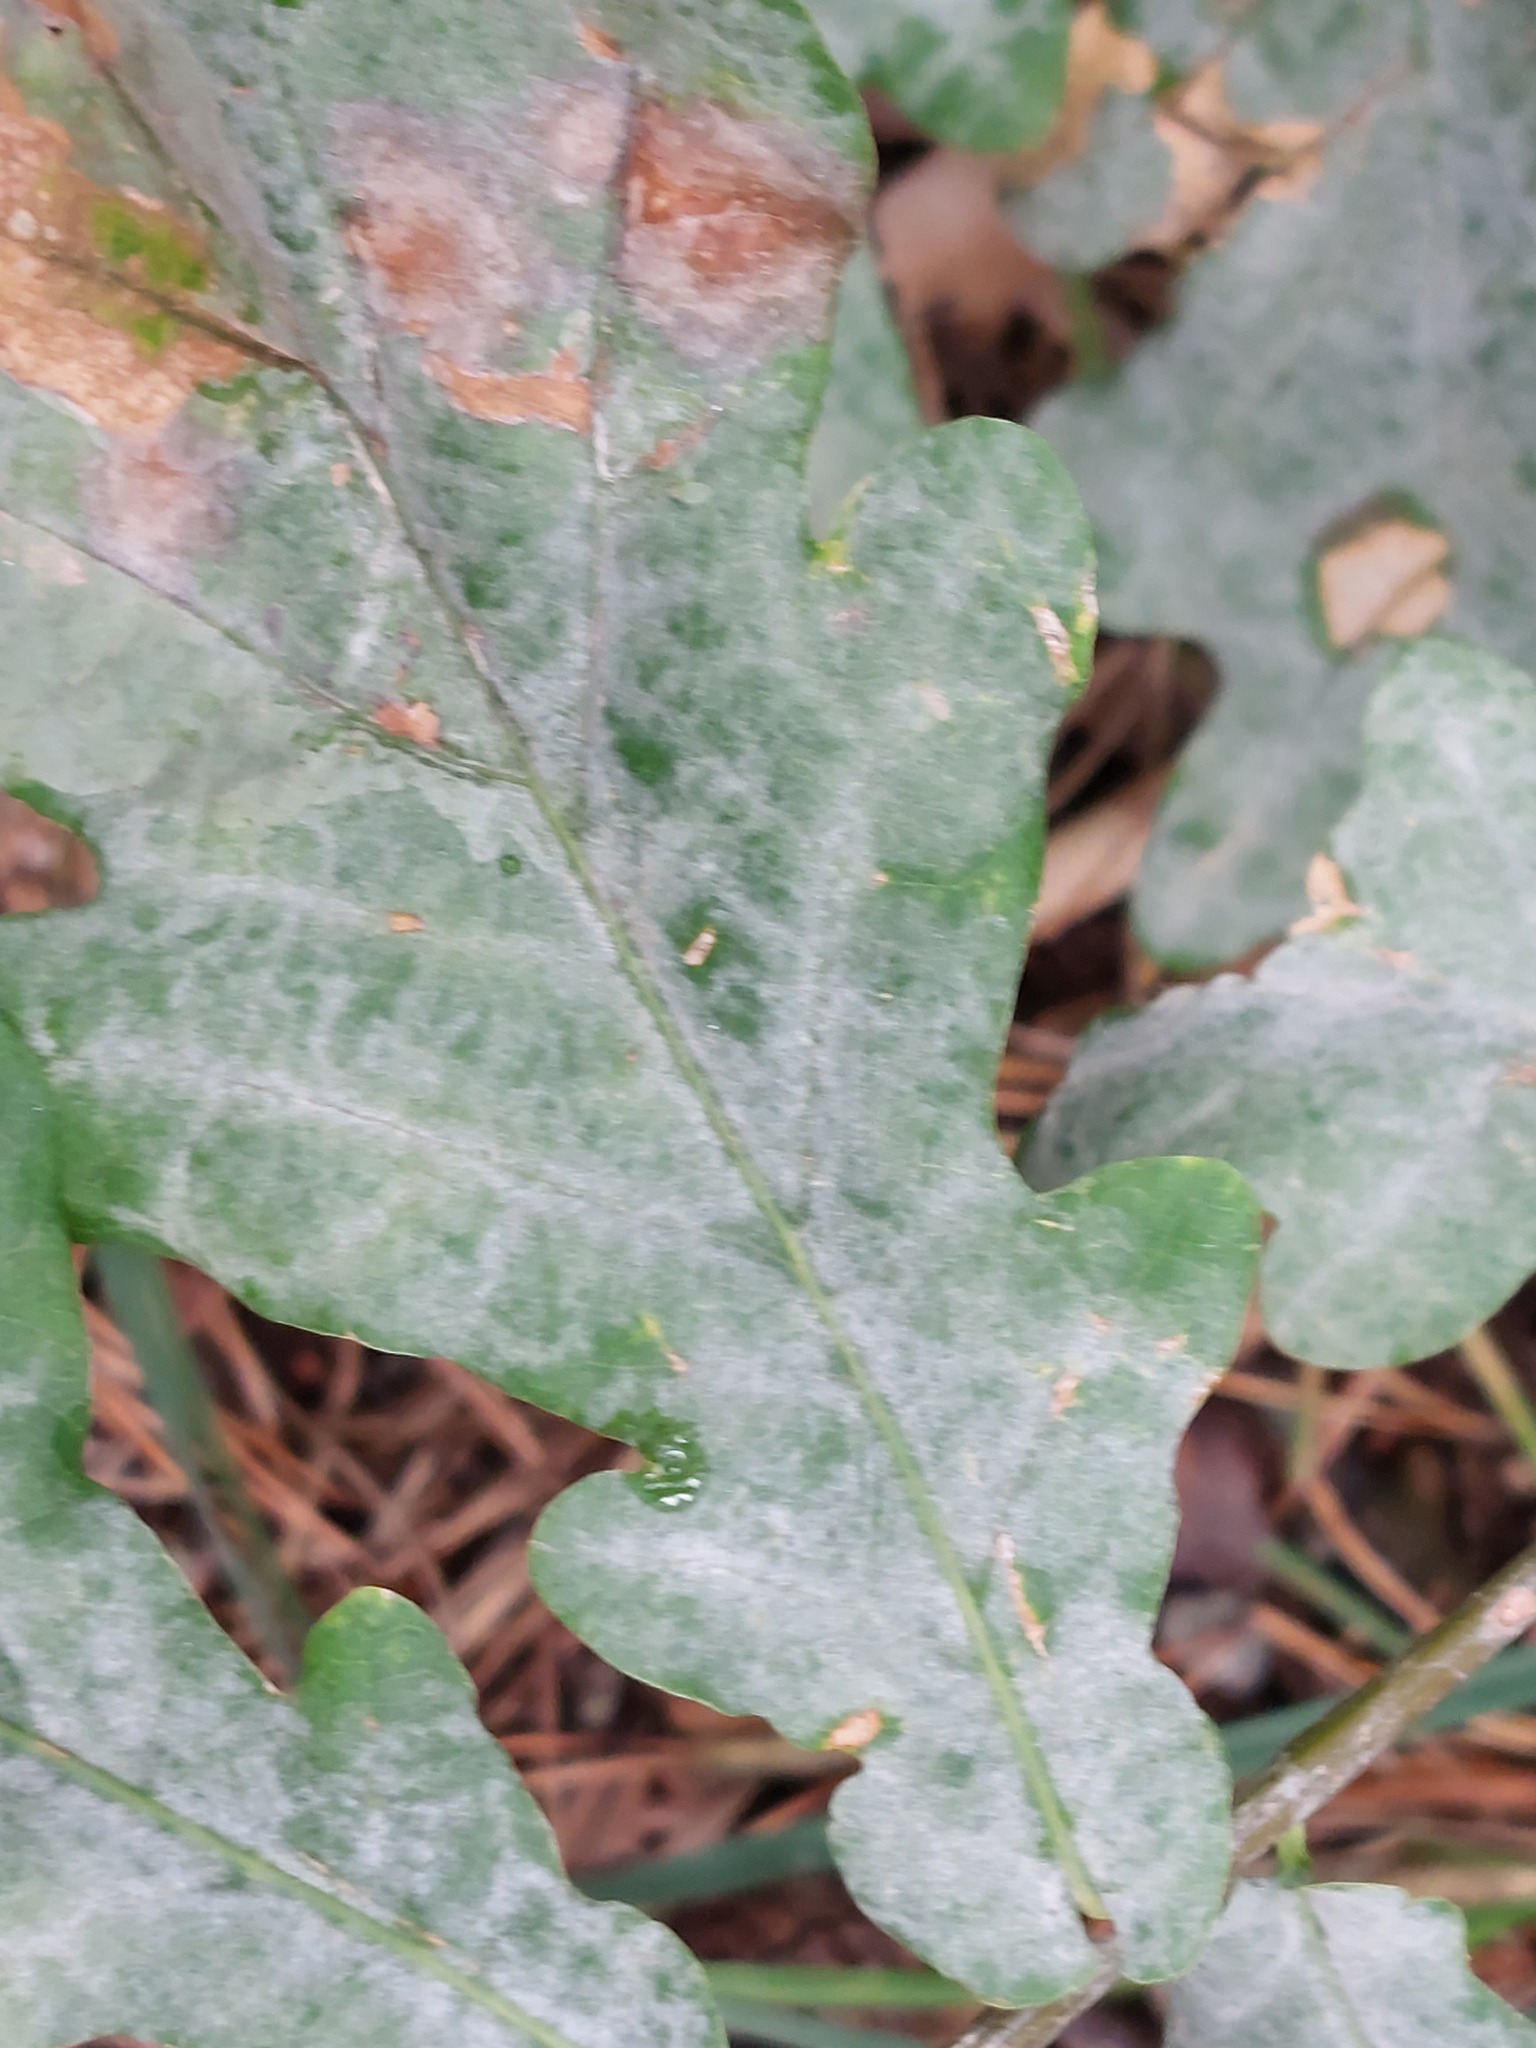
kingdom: Fungi
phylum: Ascomycota
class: Leotiomycetes
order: Helotiales
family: Erysiphaceae
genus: Erysiphe
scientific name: Erysiphe alphitoides
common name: Oak mildew
